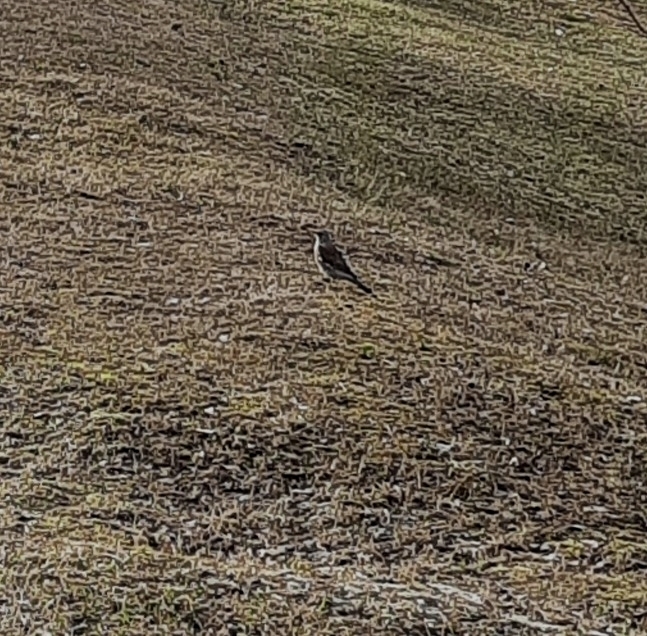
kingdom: Animalia
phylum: Chordata
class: Aves
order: Passeriformes
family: Turdidae
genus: Turdus
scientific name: Turdus pilaris
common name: Fieldfare
